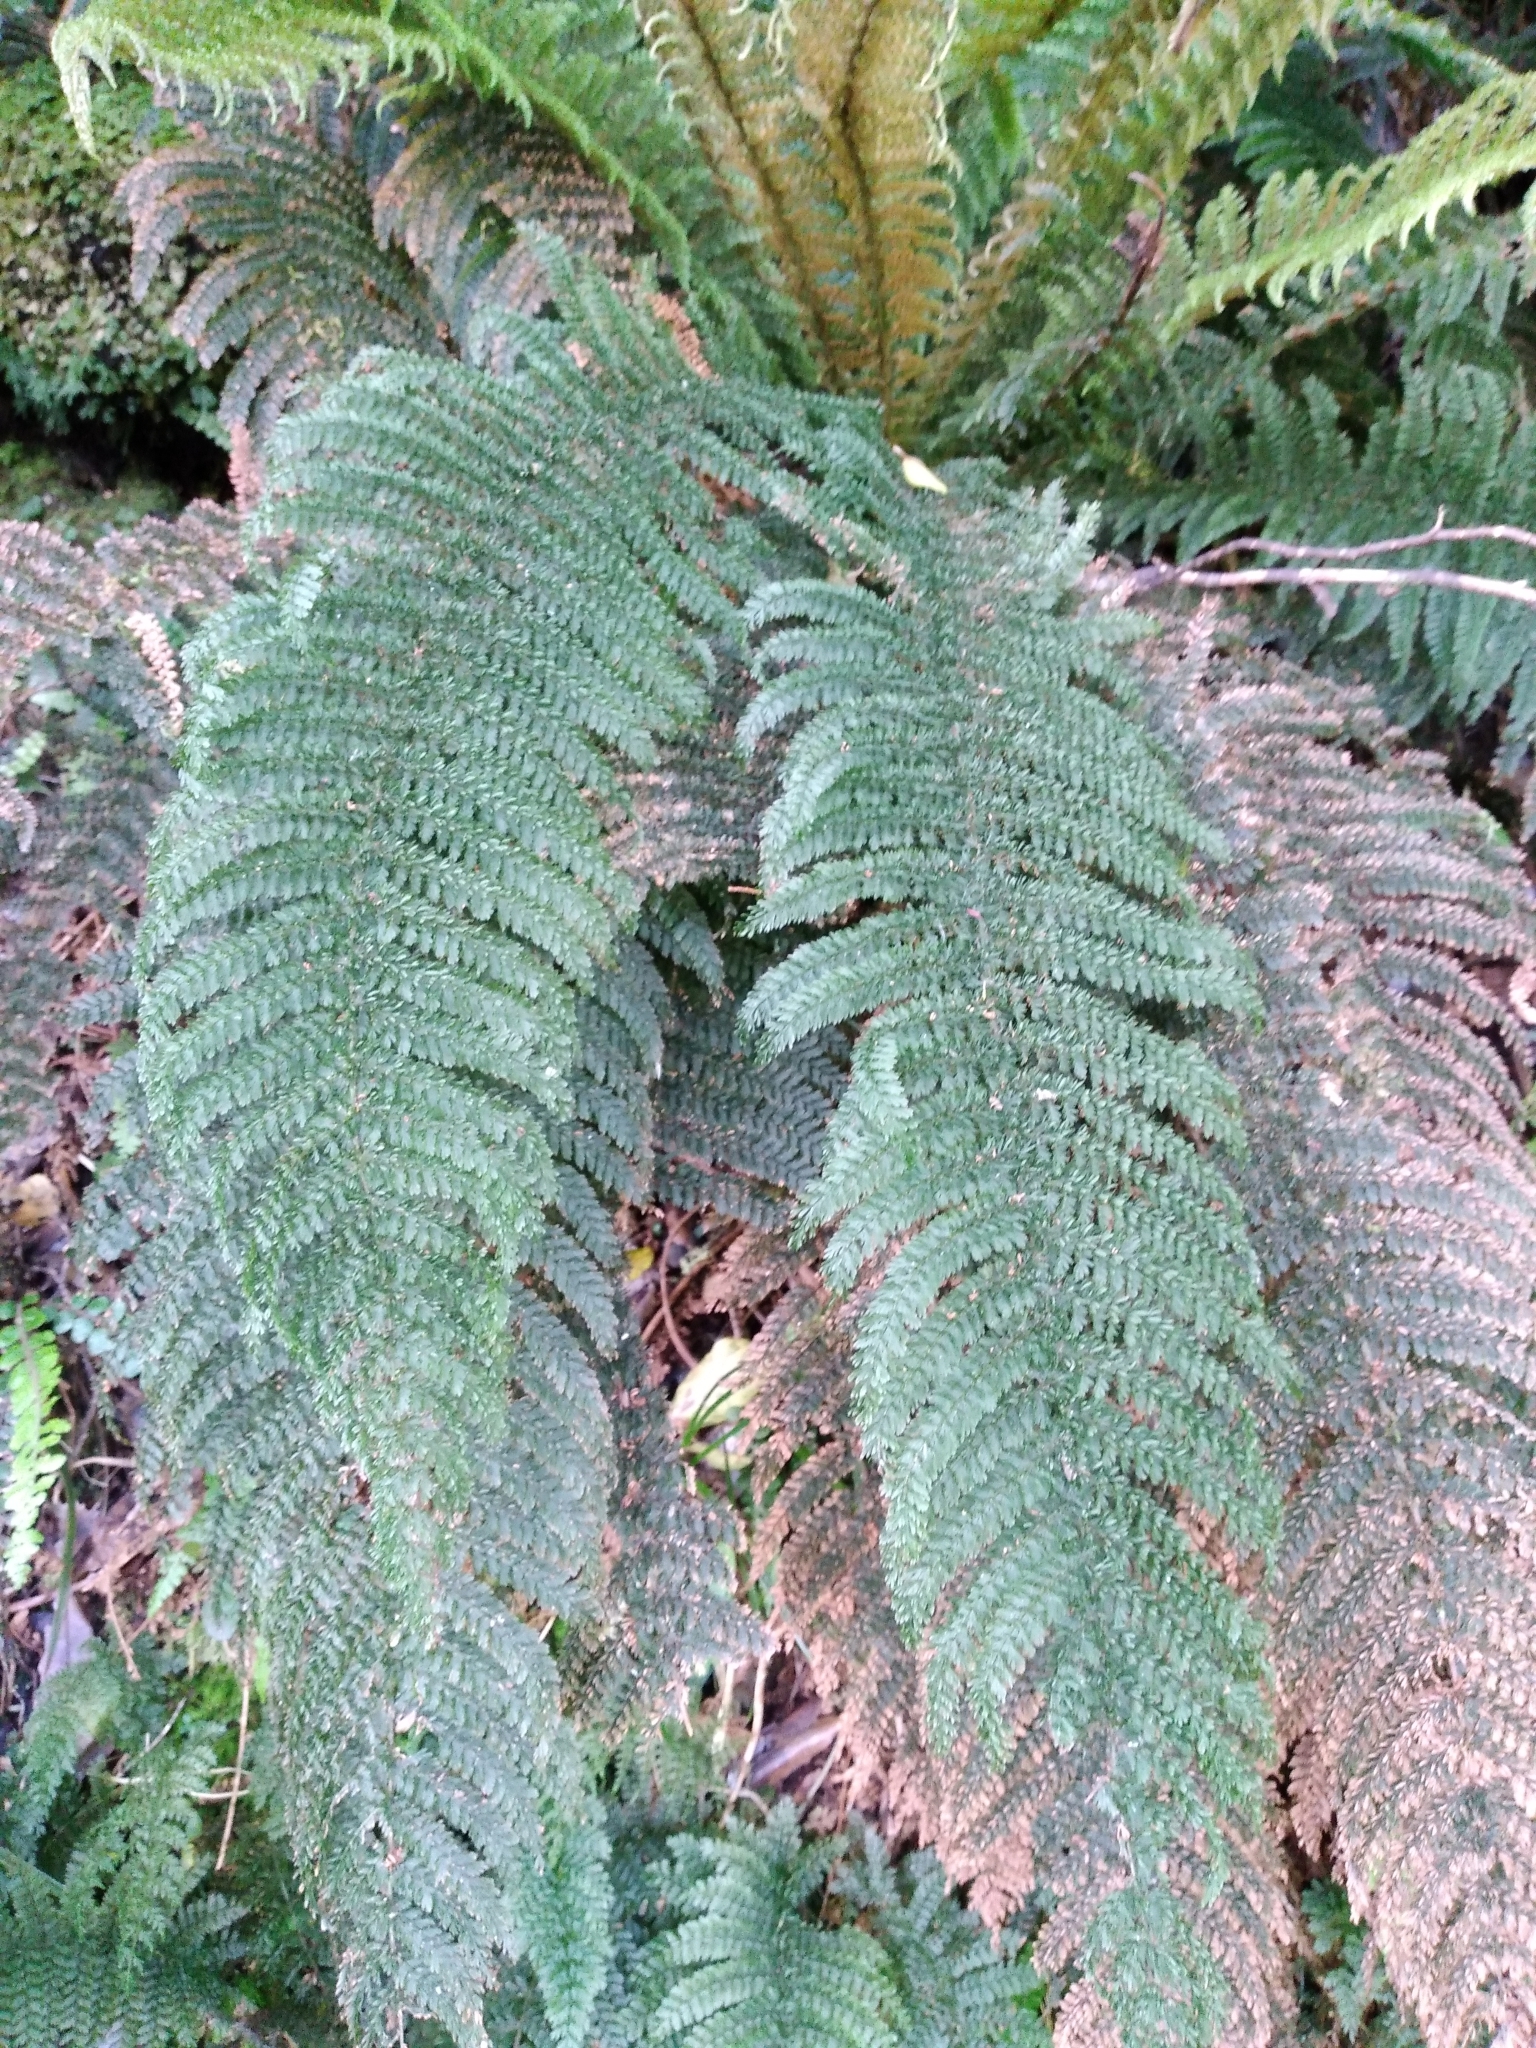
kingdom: Plantae
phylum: Tracheophyta
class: Polypodiopsida
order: Osmundales
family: Osmundaceae
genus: Leptopteris
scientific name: Leptopteris superba
